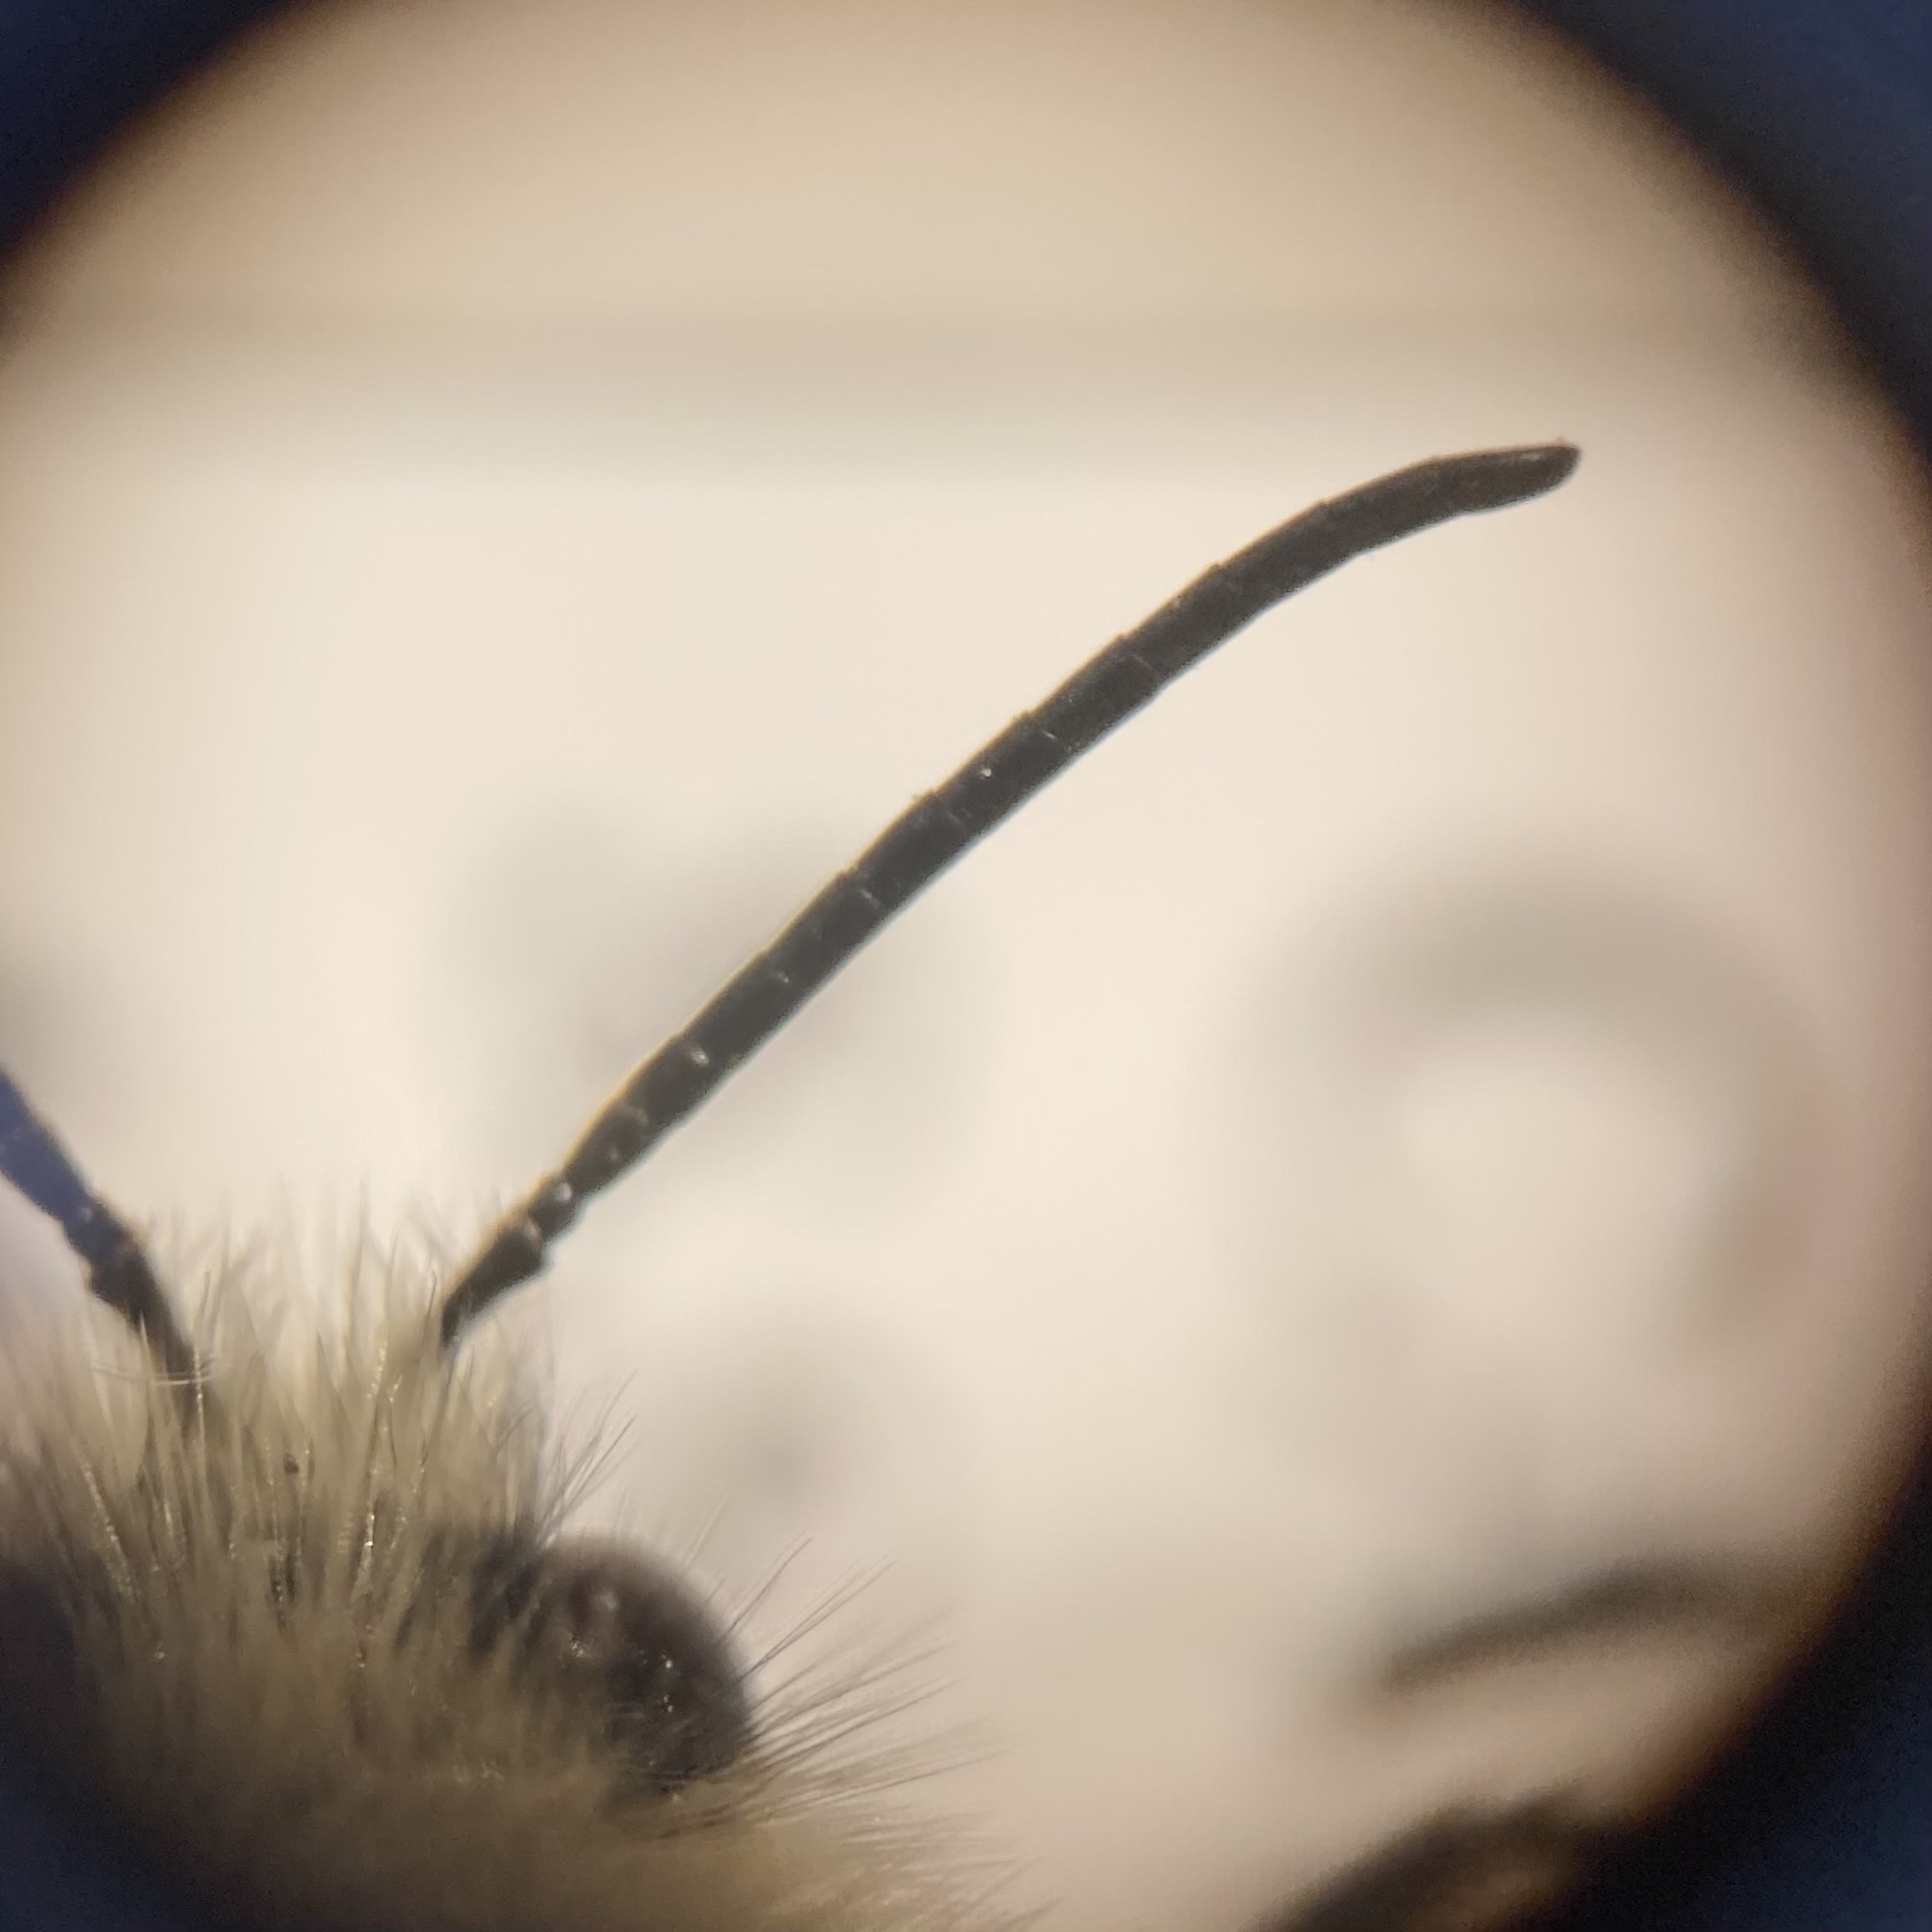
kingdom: Animalia
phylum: Arthropoda
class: Insecta
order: Hymenoptera
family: Apidae
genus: Bombus
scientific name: Bombus vagans
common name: Half-black bumble bee
